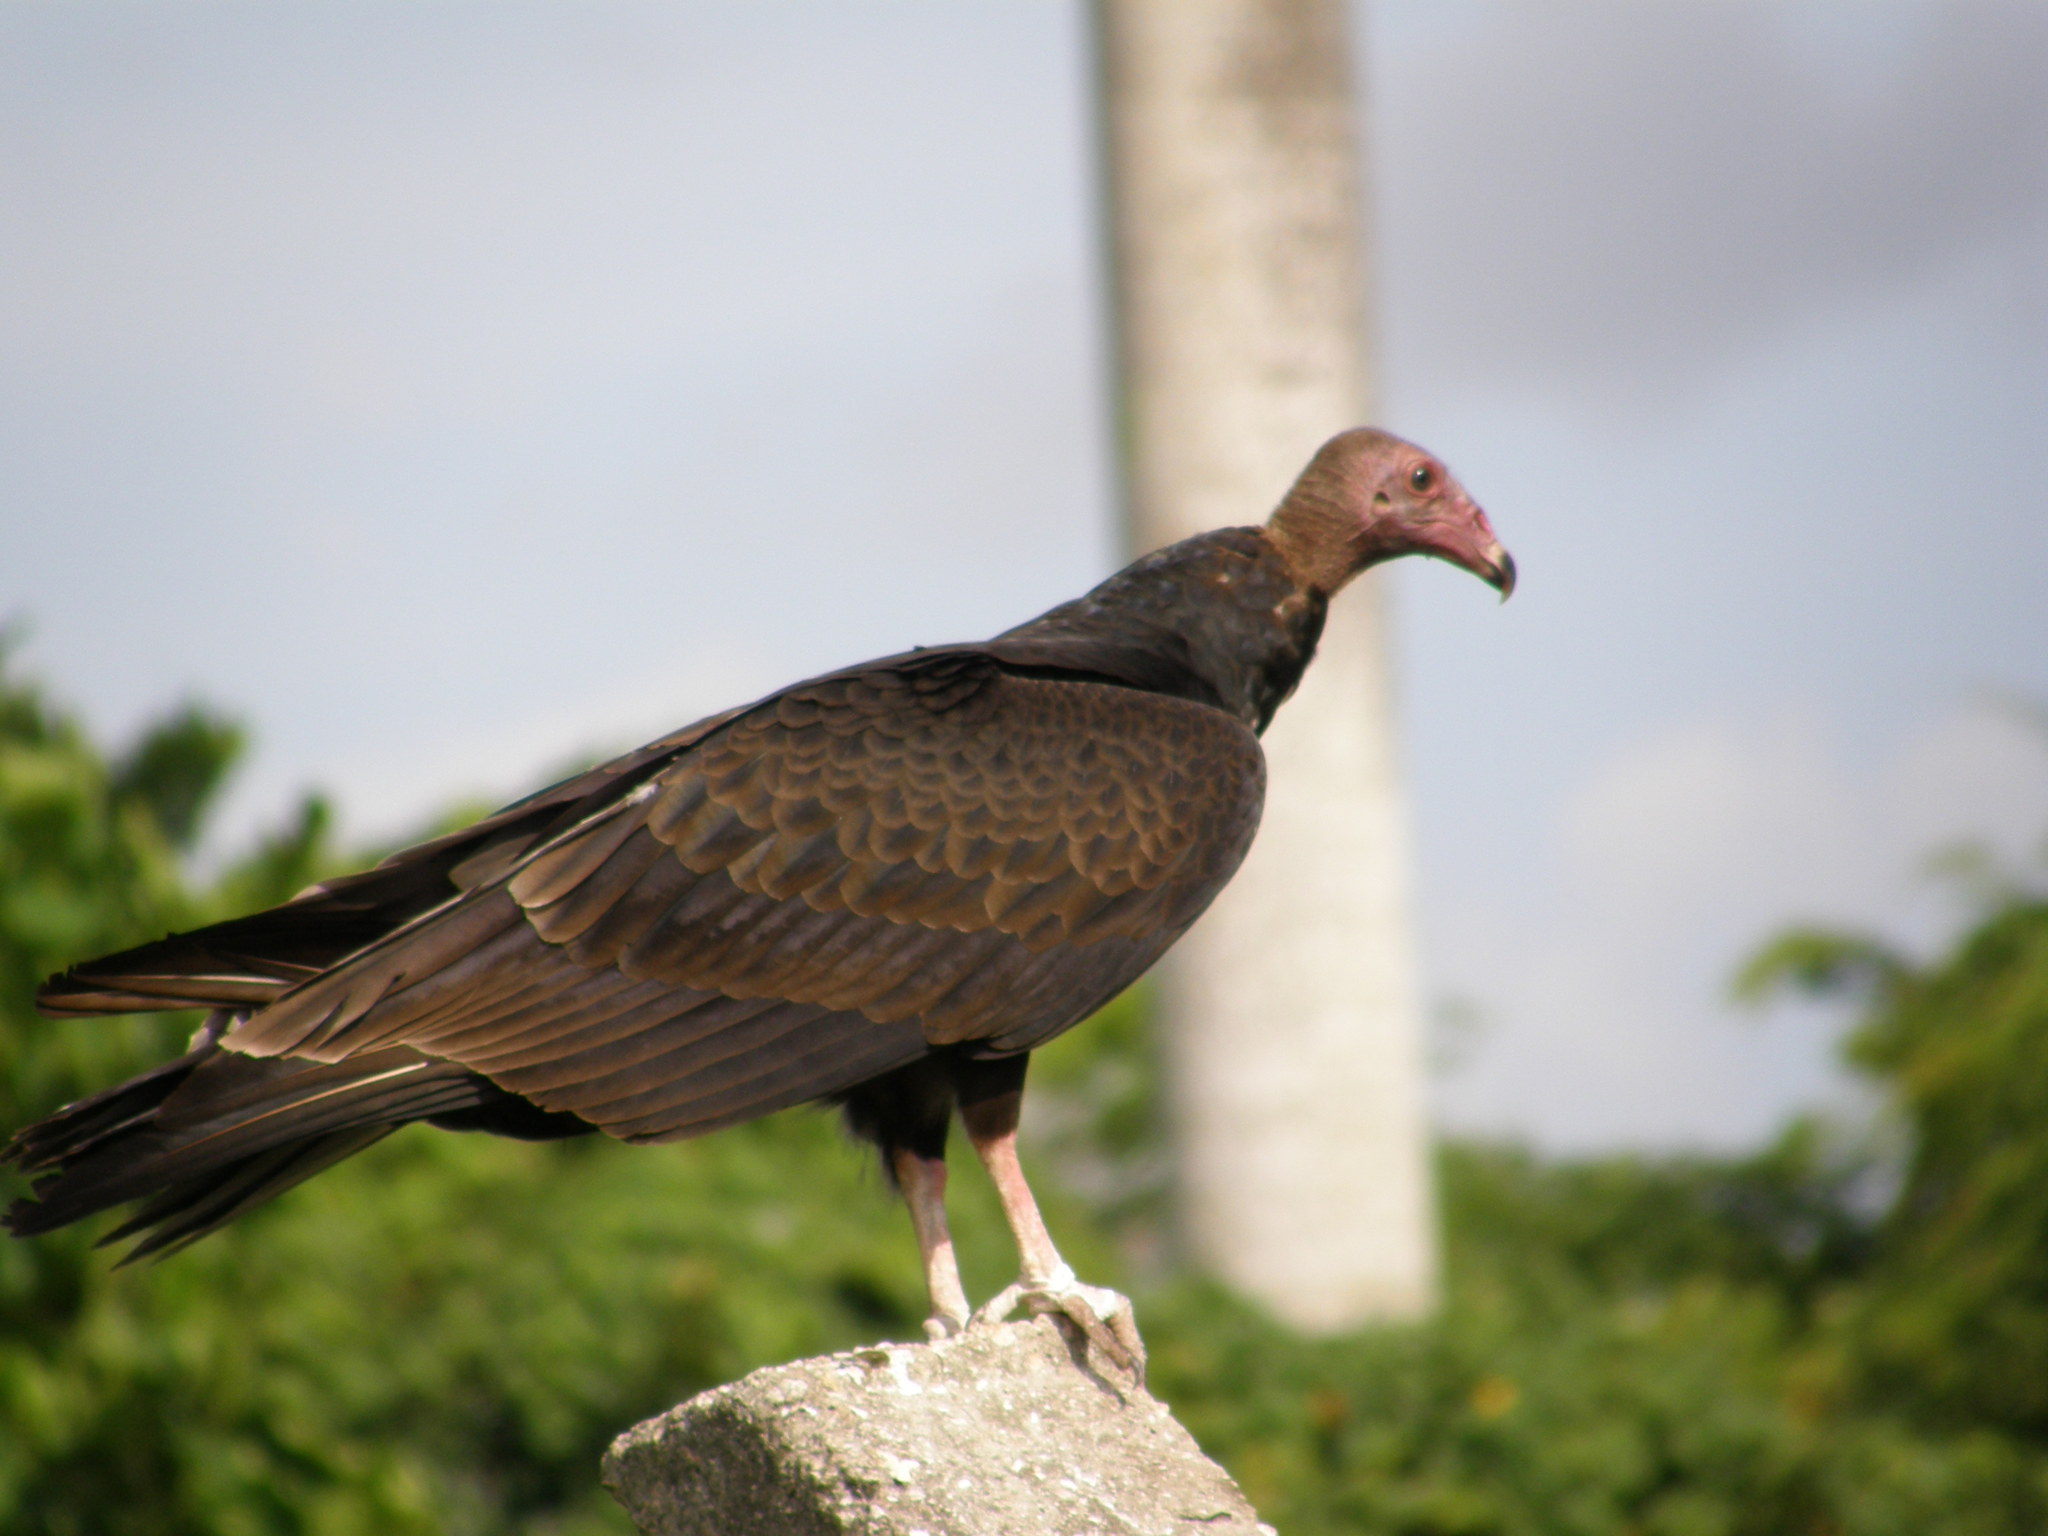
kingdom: Animalia
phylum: Chordata
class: Aves
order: Accipitriformes
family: Cathartidae
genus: Cathartes
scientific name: Cathartes aura
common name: Turkey vulture
